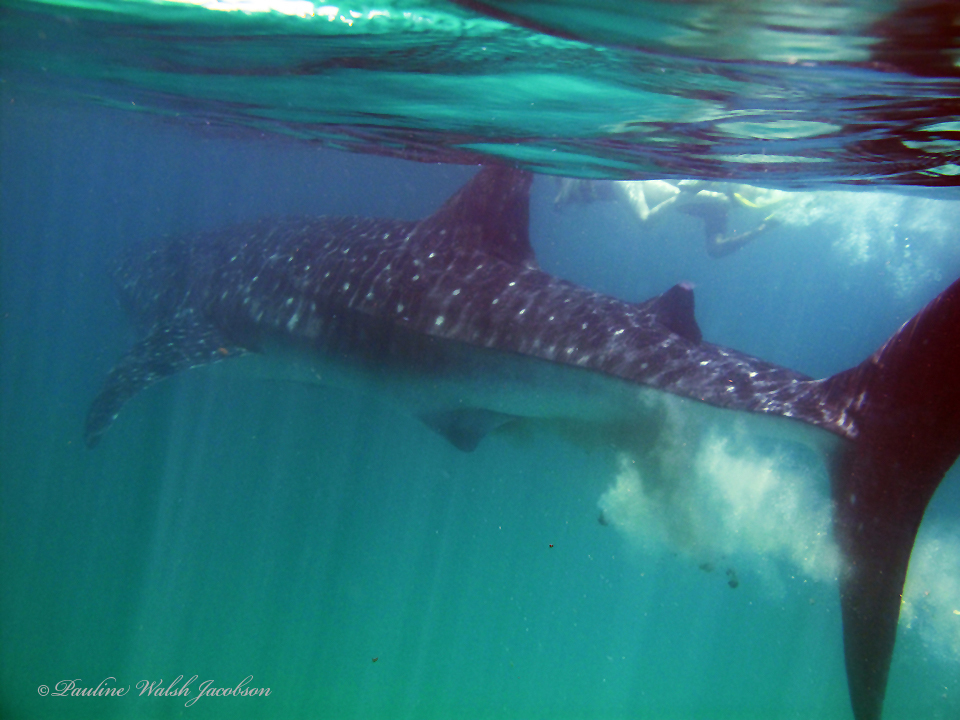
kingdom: Animalia
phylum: Chordata
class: Elasmobranchii
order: Orectolobiformes
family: Rhincodontidae
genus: Rhincodon
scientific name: Rhincodon typus
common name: Whale shark
